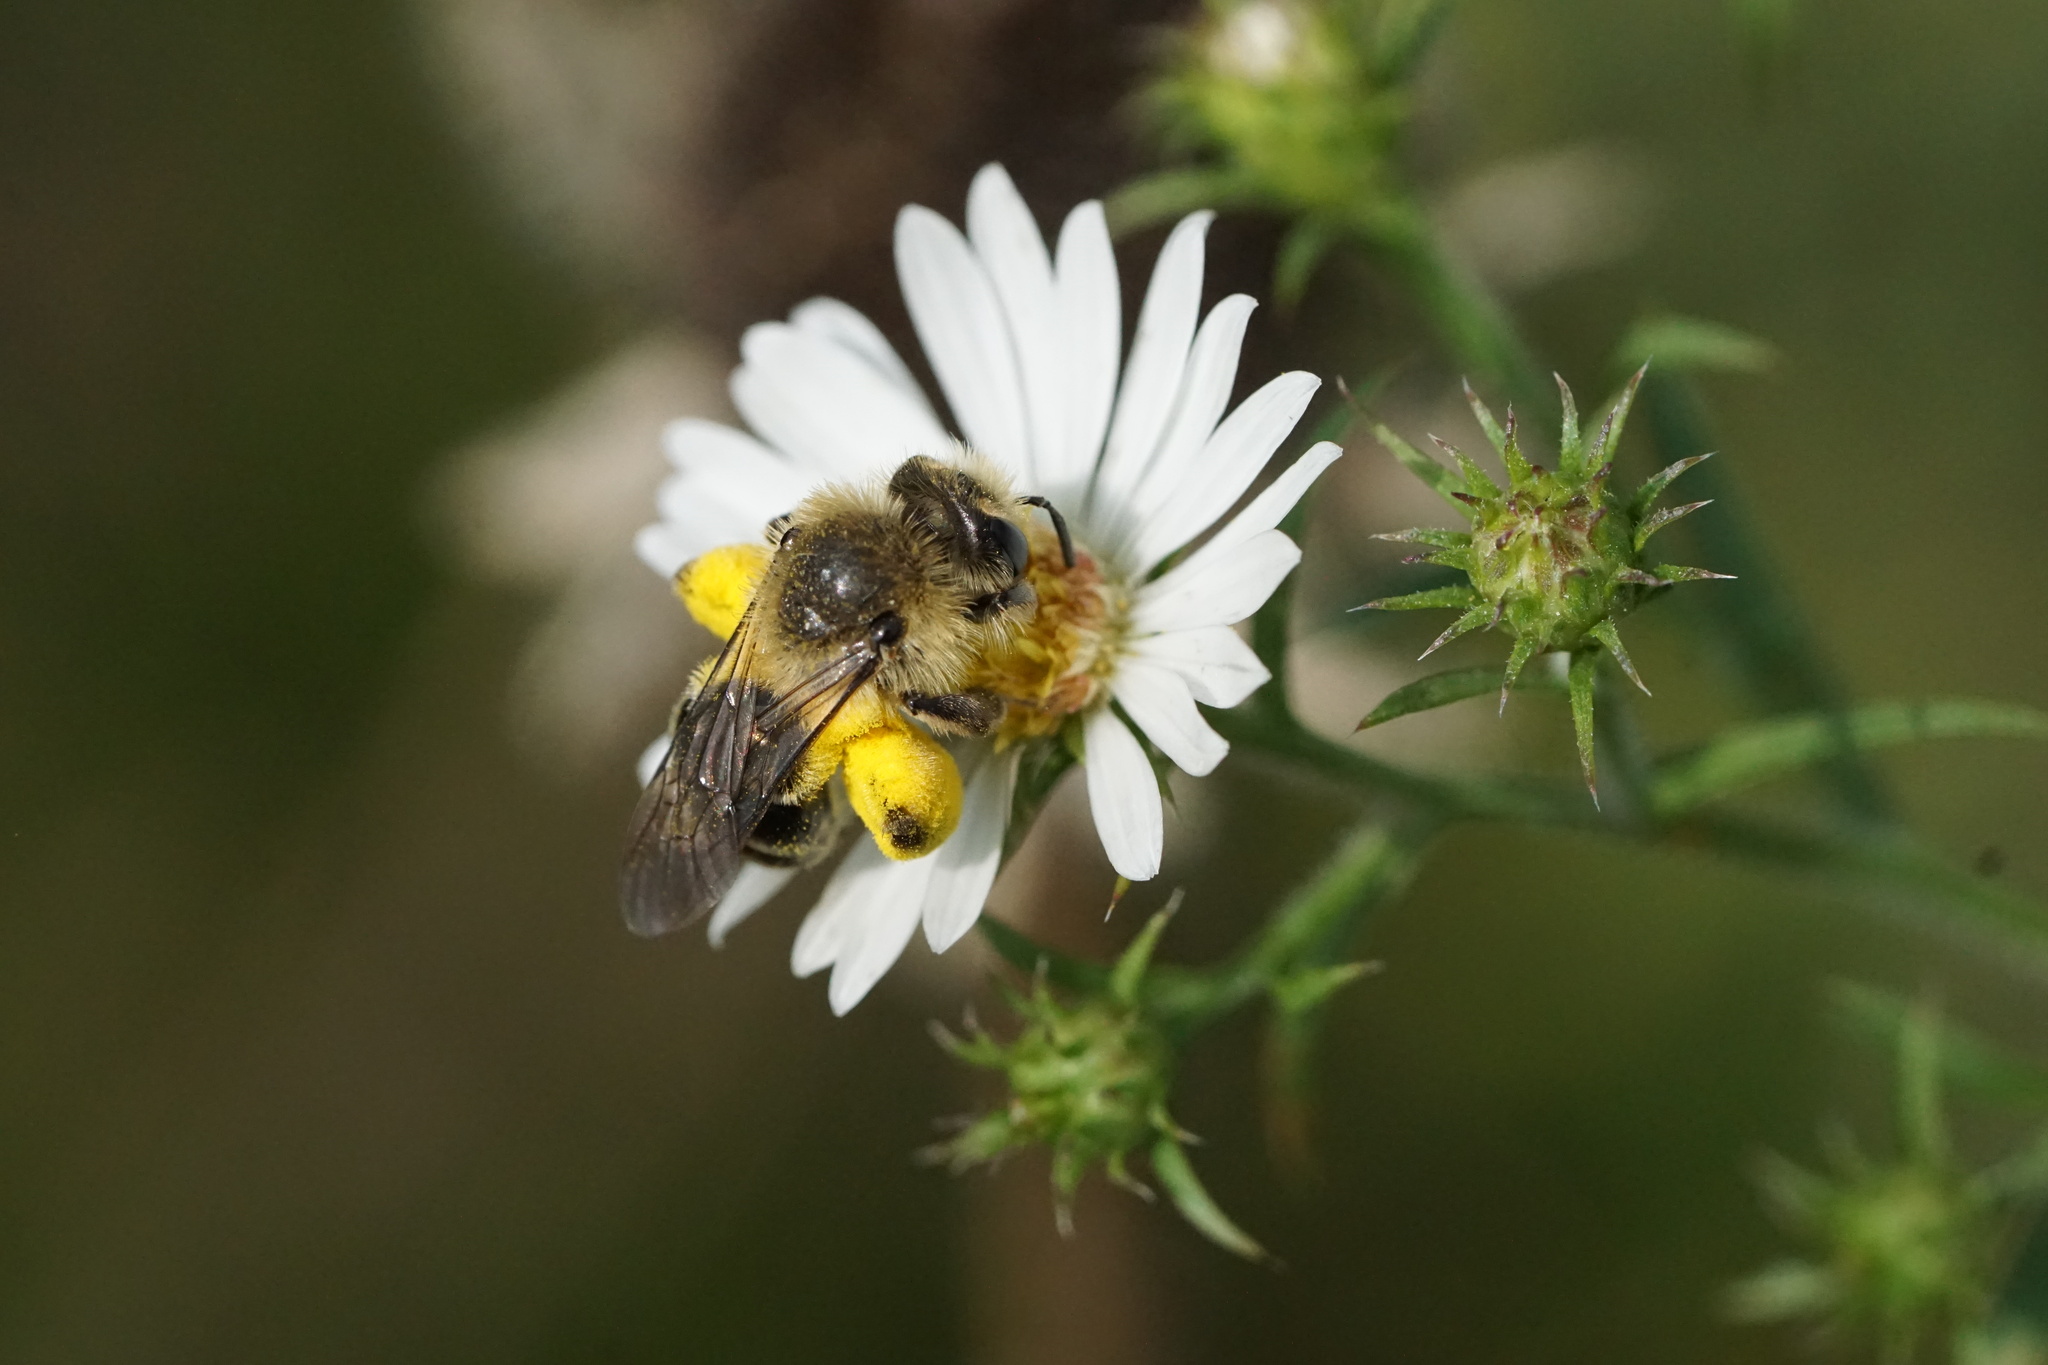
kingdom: Animalia
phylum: Arthropoda
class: Insecta
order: Hymenoptera
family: Andrenidae
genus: Andrena
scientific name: Andrena asteris
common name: Aster mining bee
